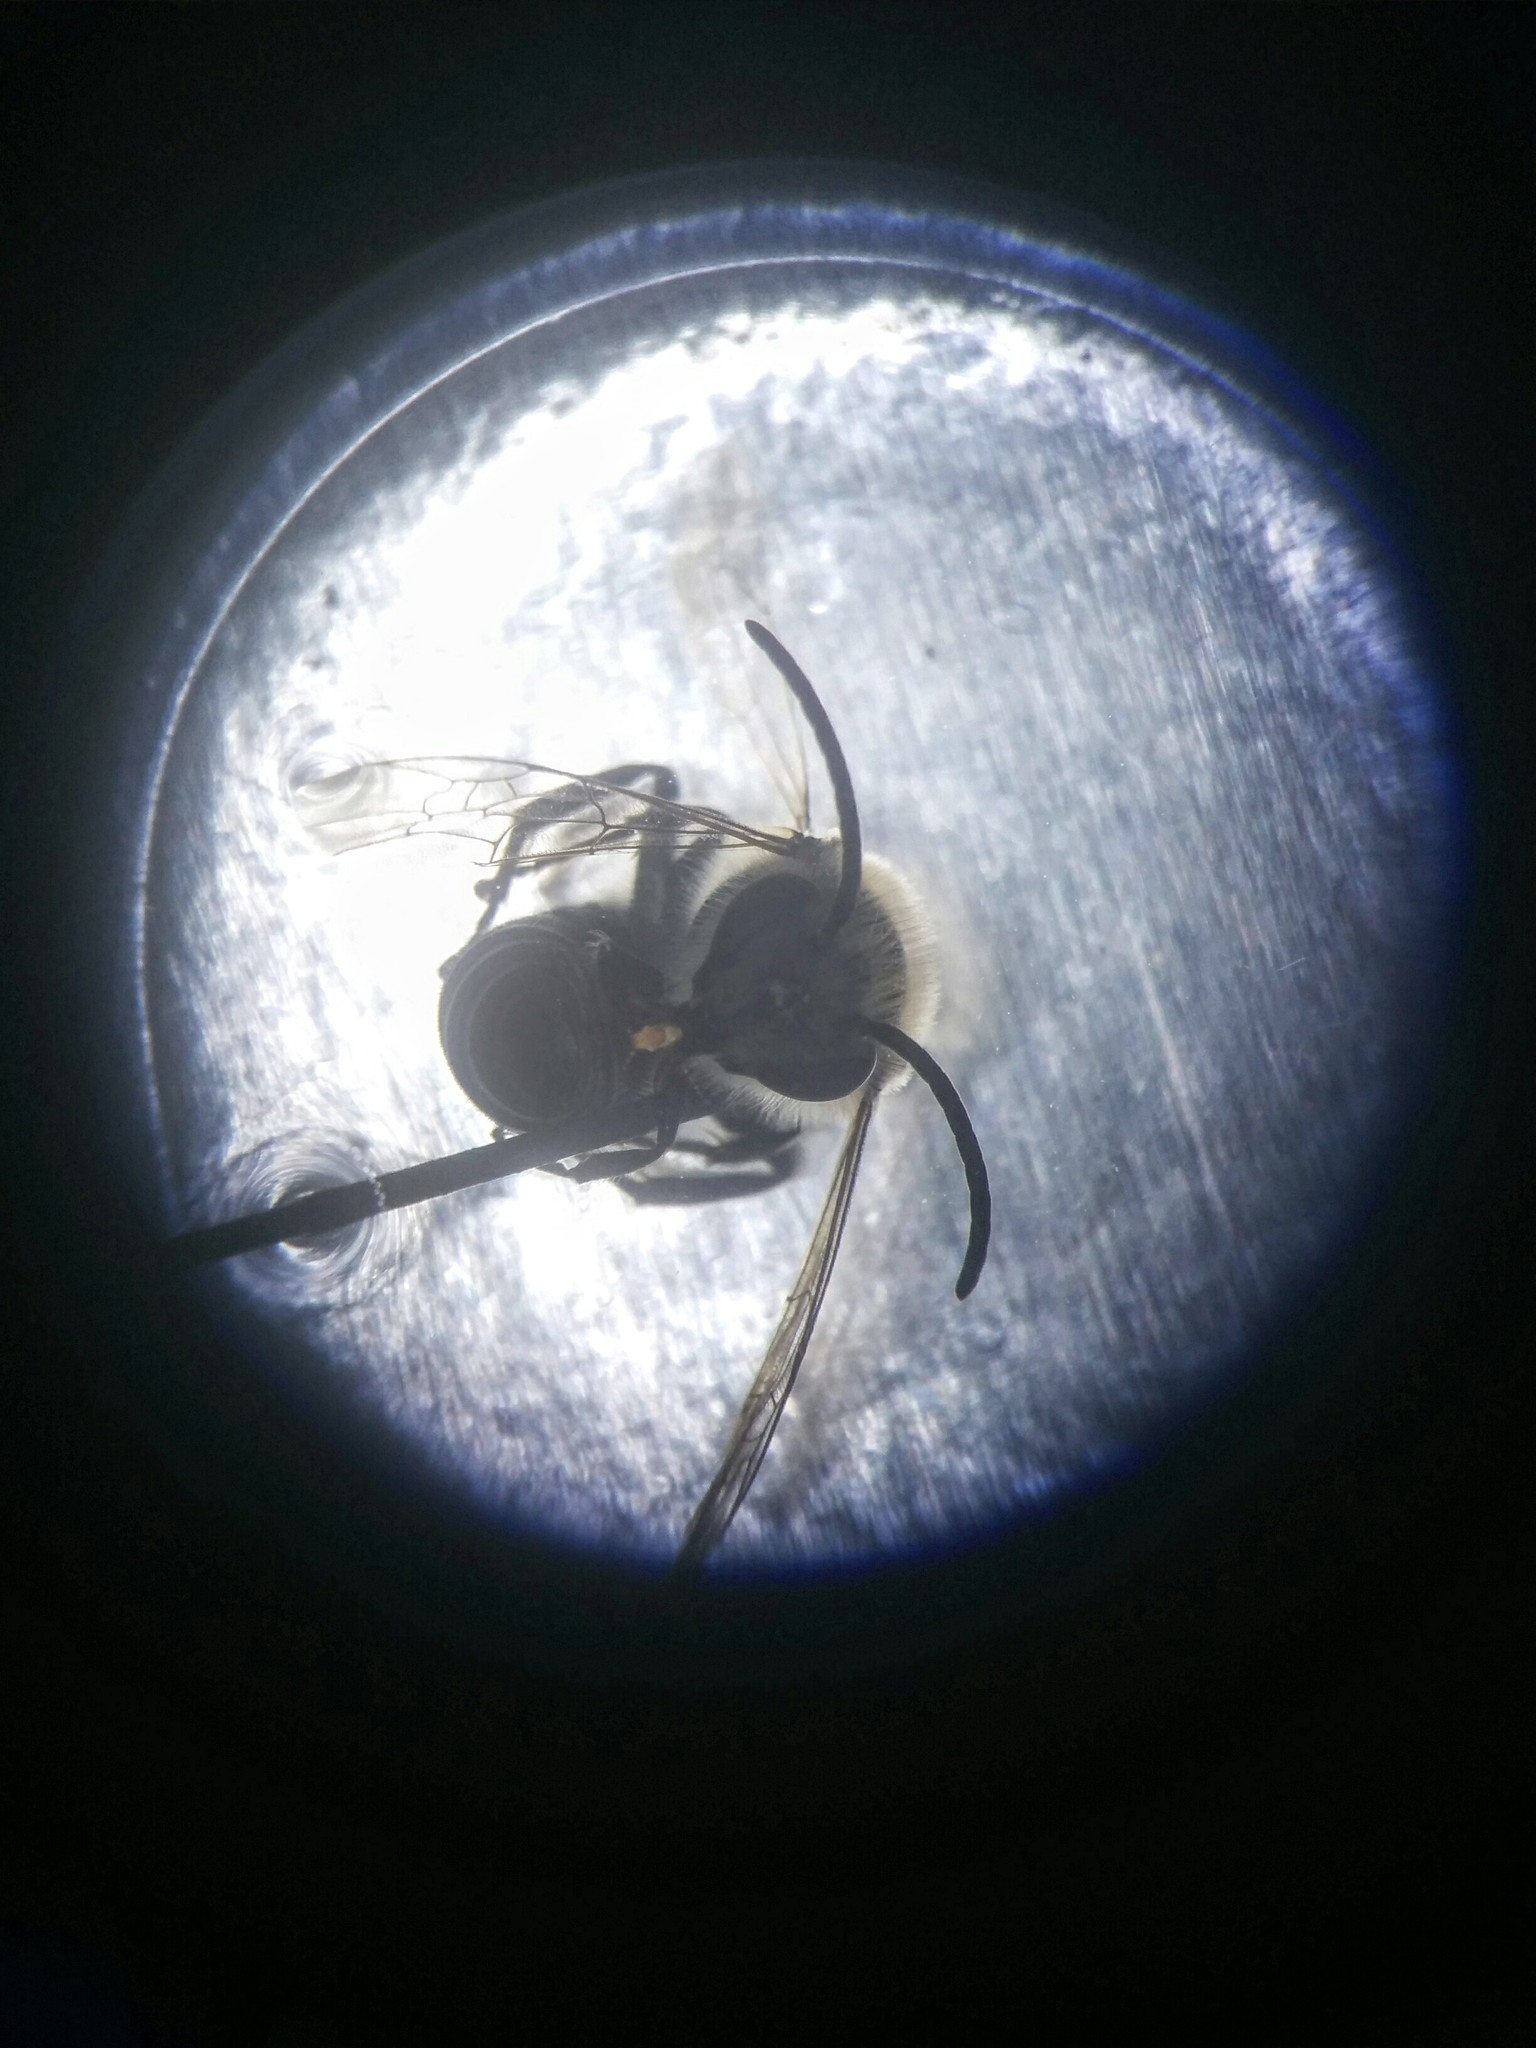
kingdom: Animalia
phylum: Arthropoda
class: Insecta
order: Hymenoptera
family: Colletidae
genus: Colletes
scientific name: Colletes compactus
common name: Aster cellophane bee
